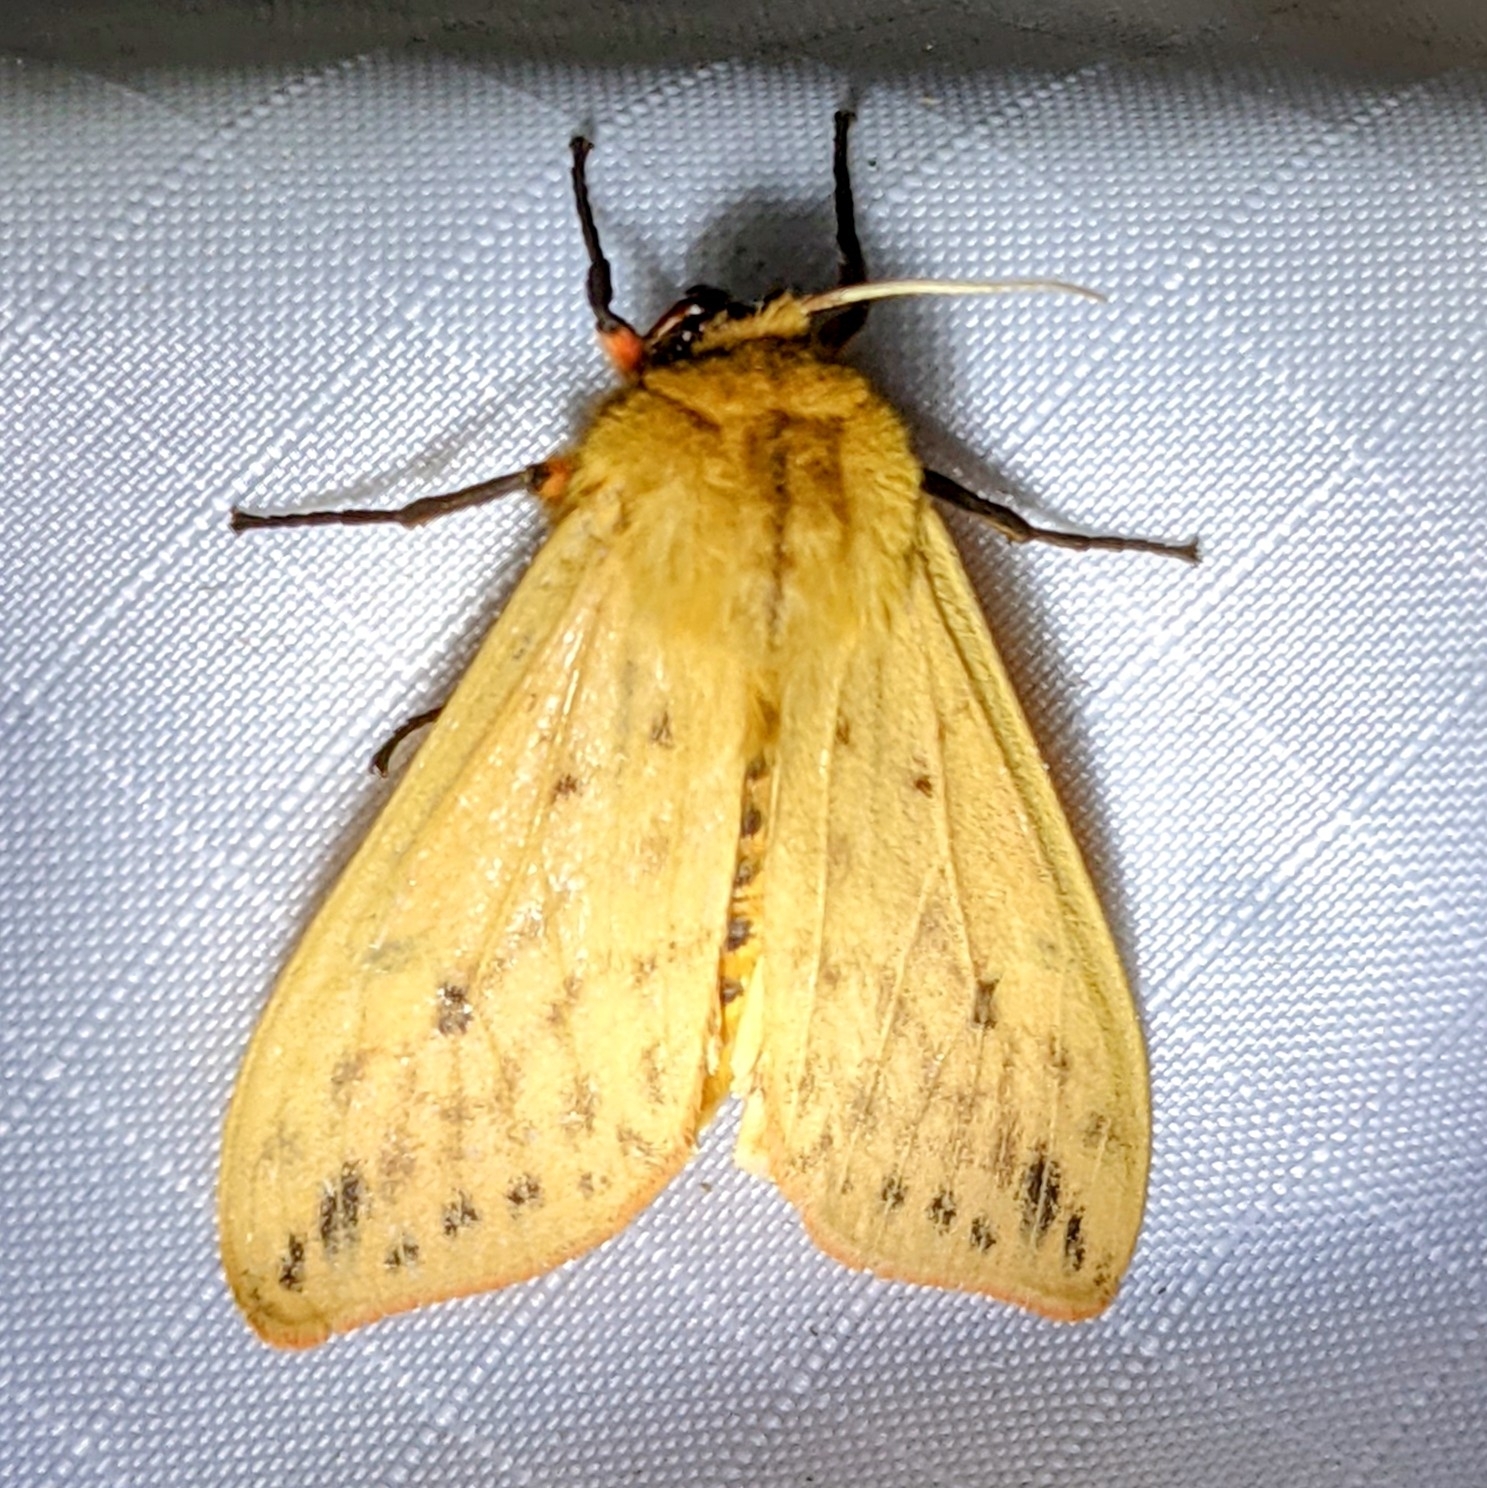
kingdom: Animalia
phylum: Arthropoda
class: Insecta
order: Lepidoptera
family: Erebidae
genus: Pyrrharctia
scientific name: Pyrrharctia isabella
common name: Isabella tiger moth
